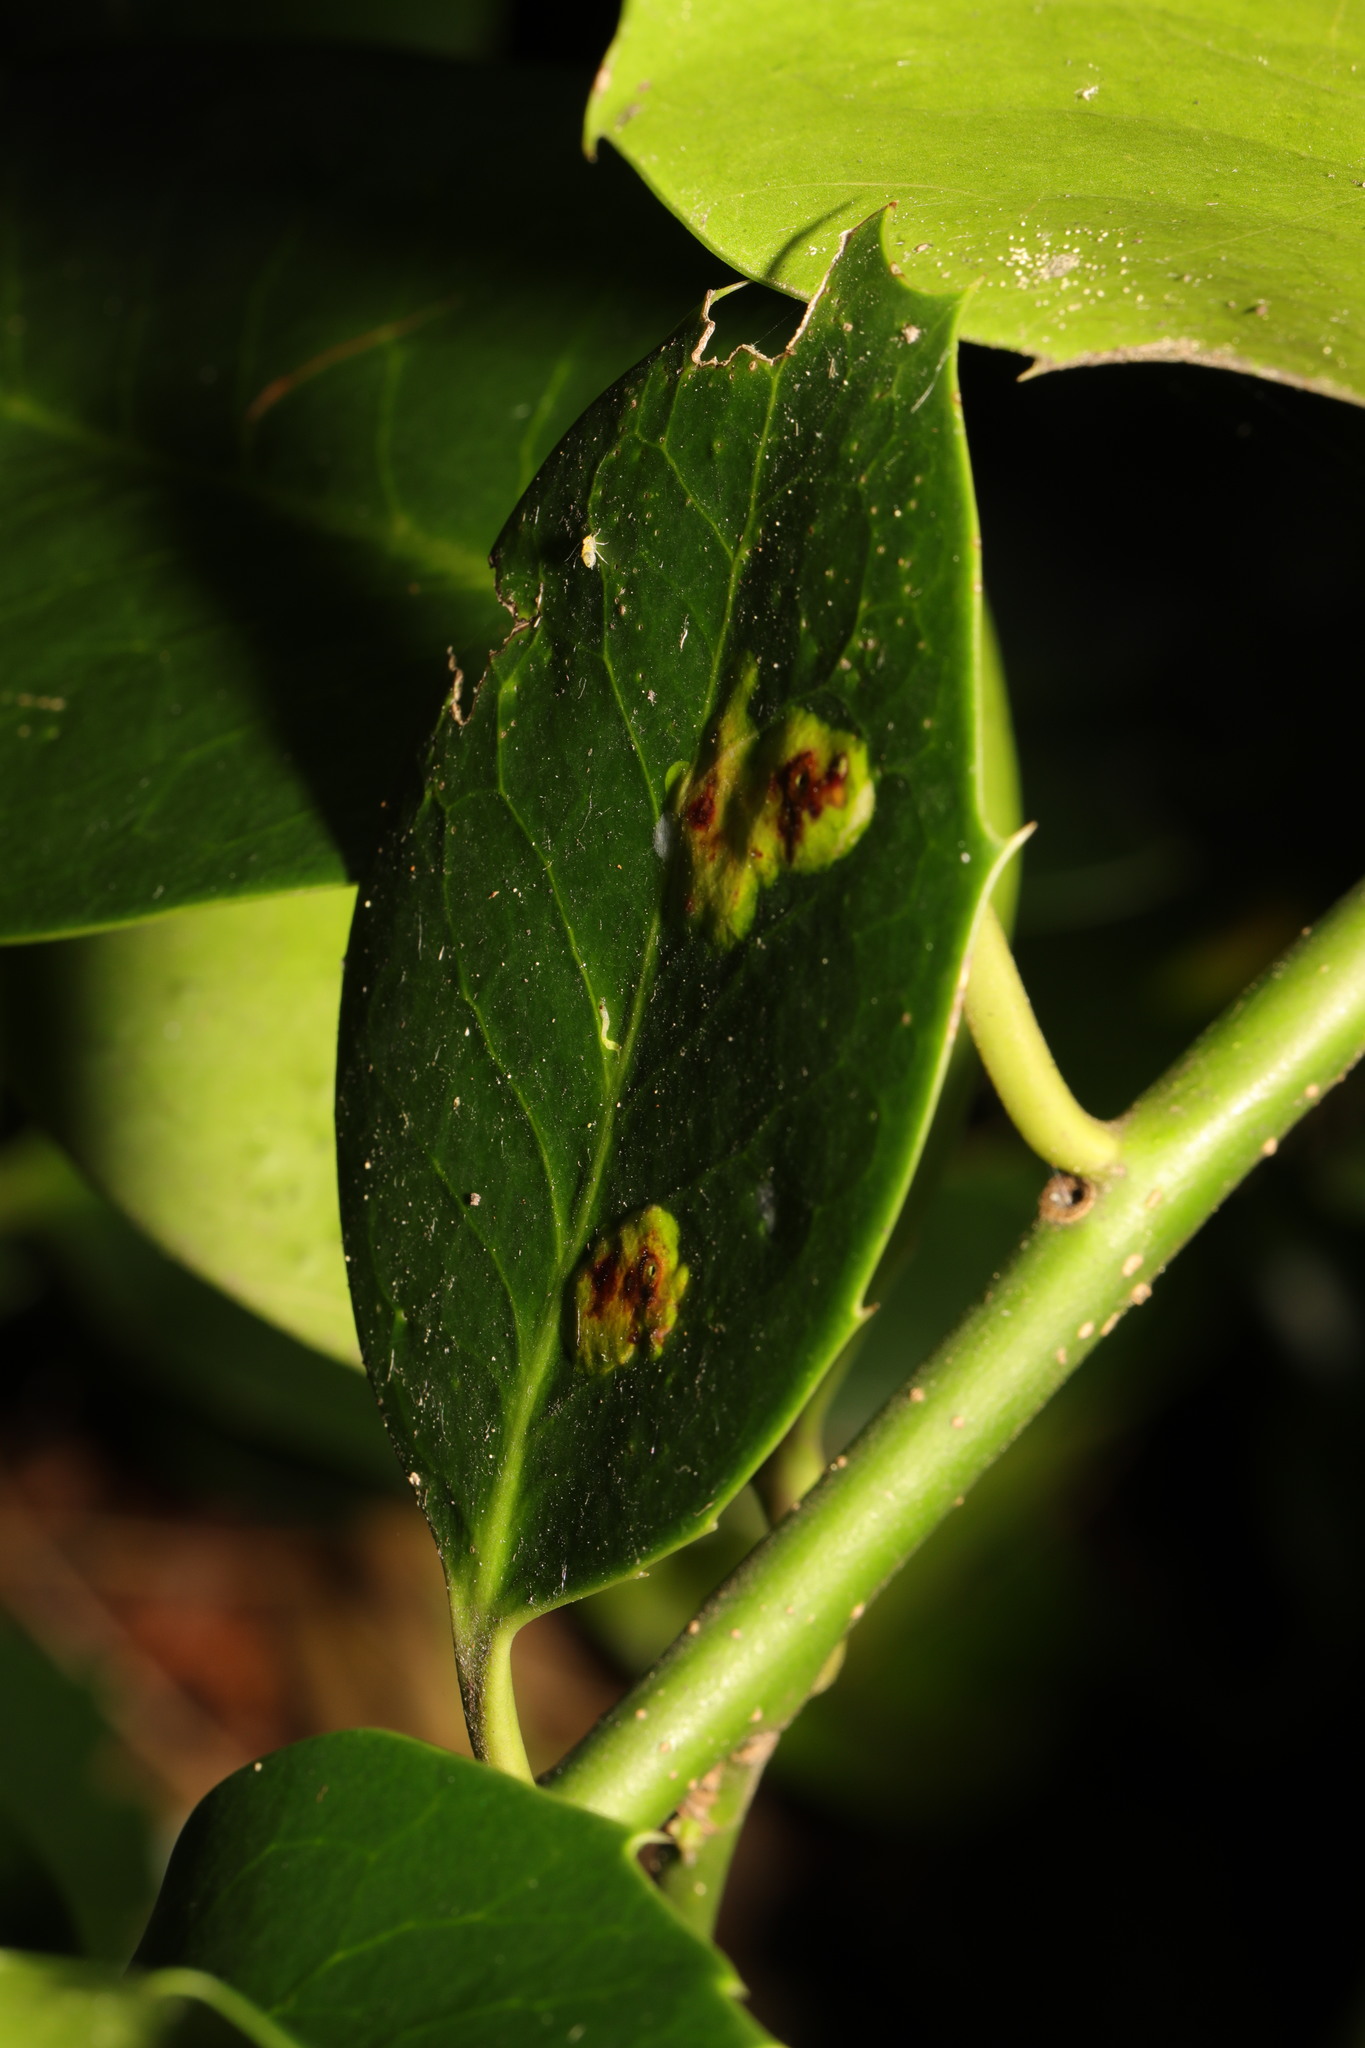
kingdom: Animalia
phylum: Arthropoda
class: Insecta
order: Diptera
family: Agromyzidae
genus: Phytomyza
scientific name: Phytomyza ilicis
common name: Holly leafminer
